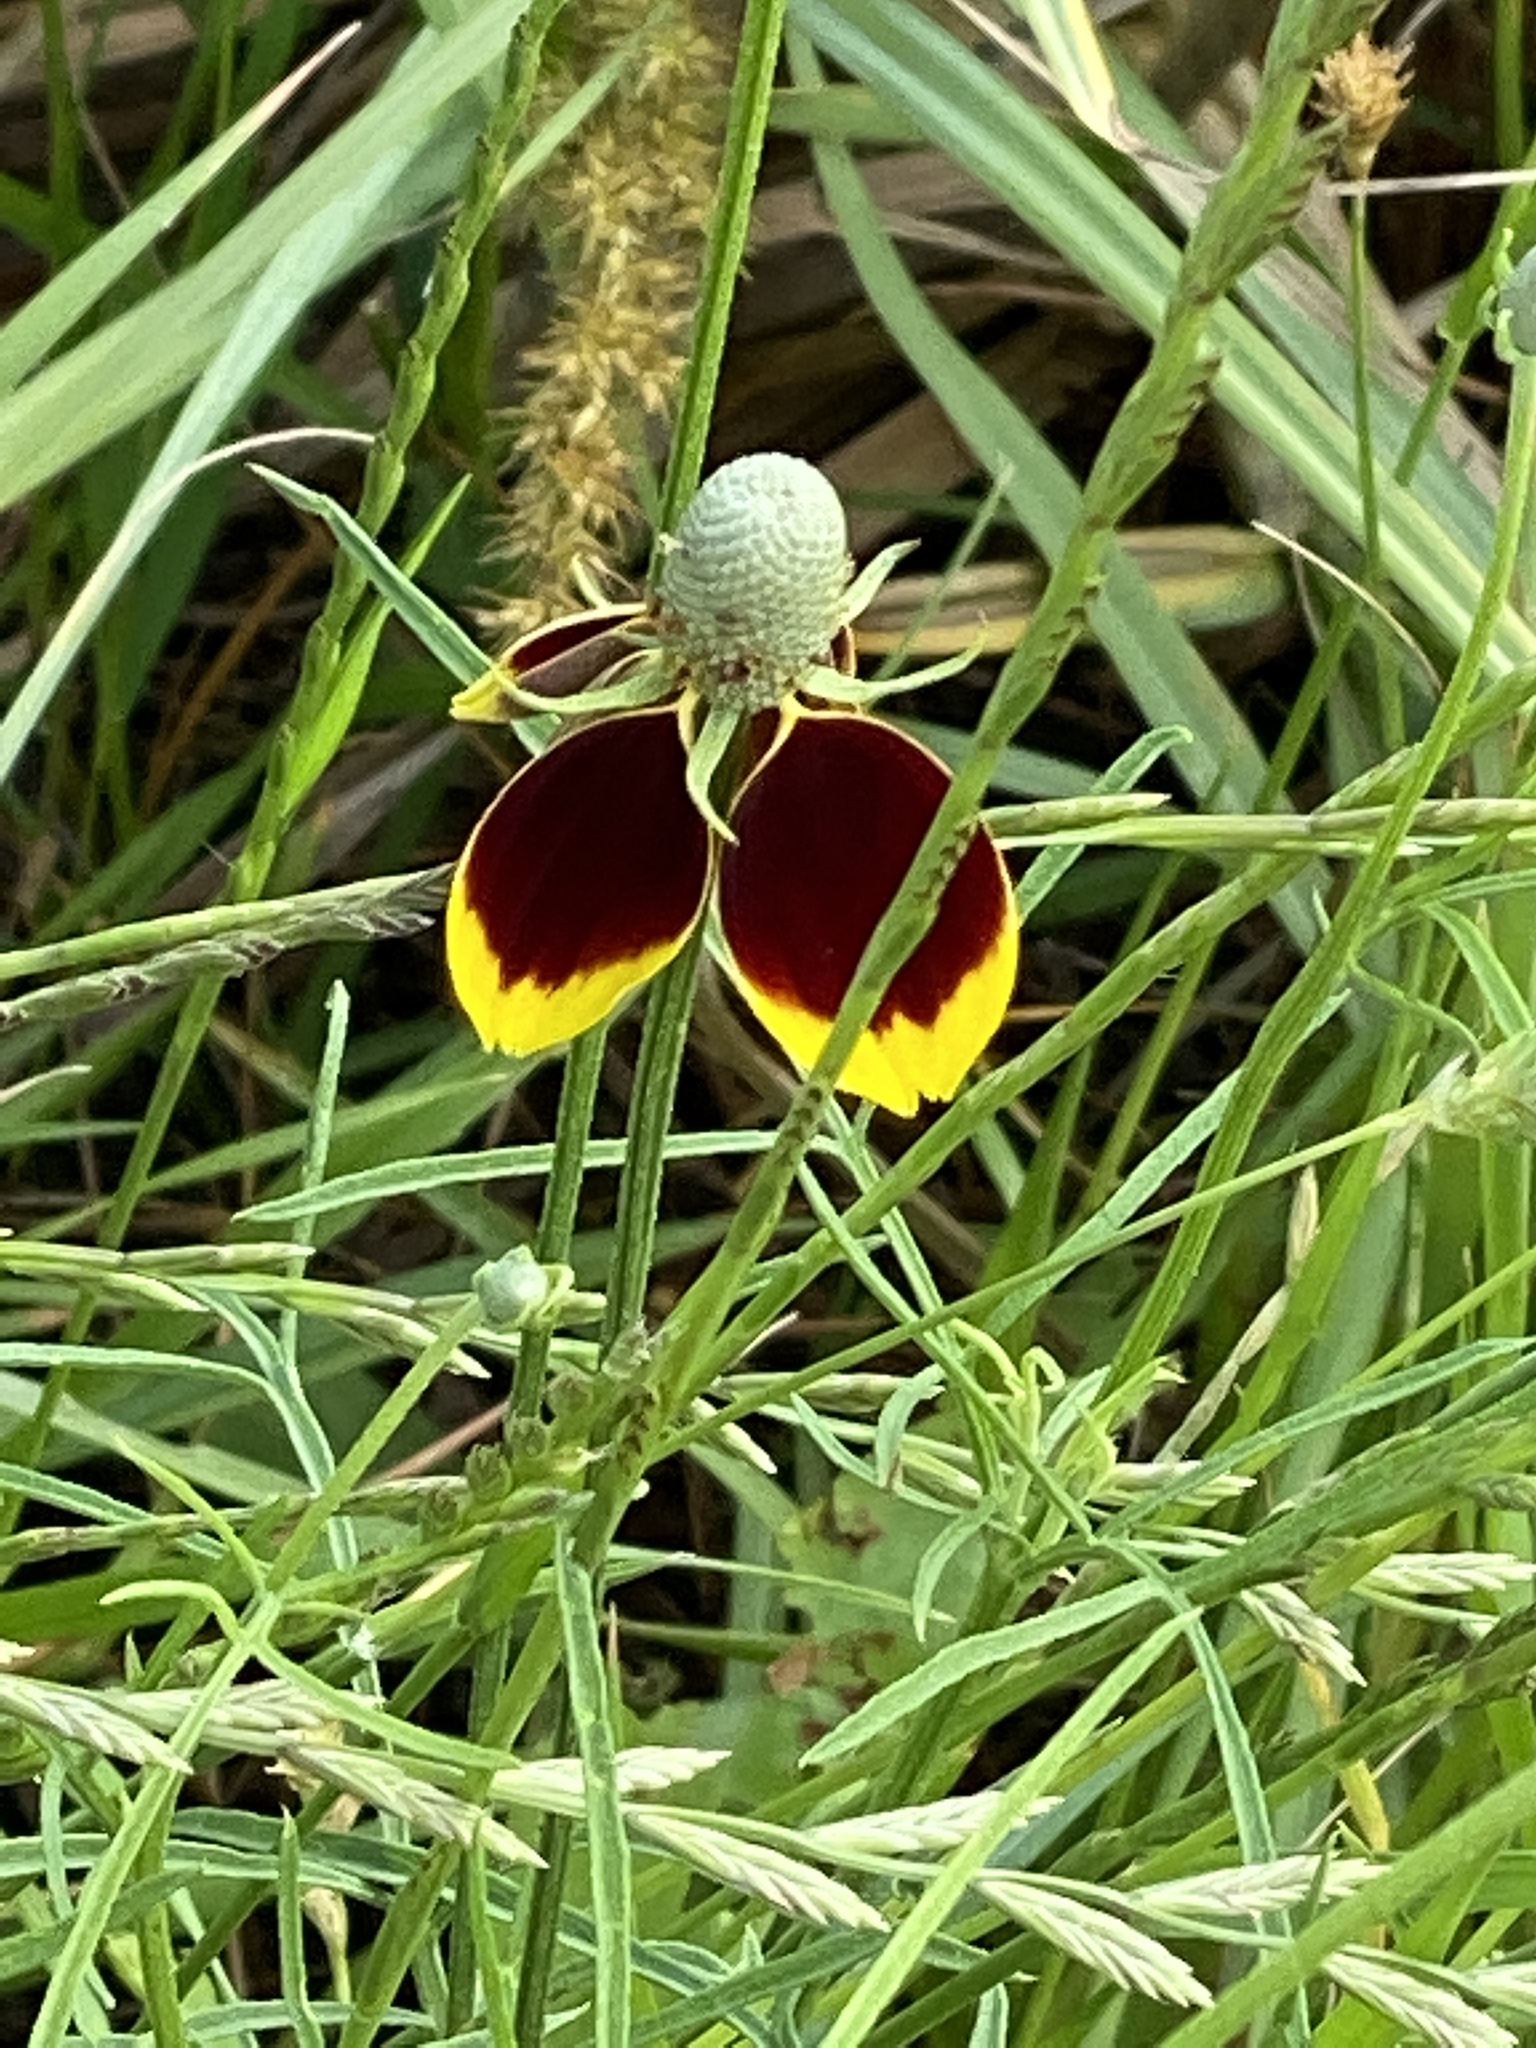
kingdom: Plantae
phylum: Tracheophyta
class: Magnoliopsida
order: Asterales
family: Asteraceae
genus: Ratibida
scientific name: Ratibida columnifera
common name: Prairie coneflower
